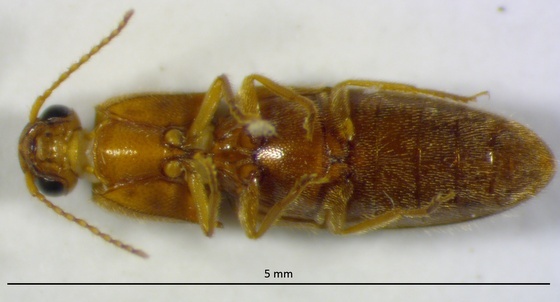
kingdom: Animalia
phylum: Arthropoda
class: Insecta
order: Coleoptera
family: Elateridae
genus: Glyphonyx
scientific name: Glyphonyx
